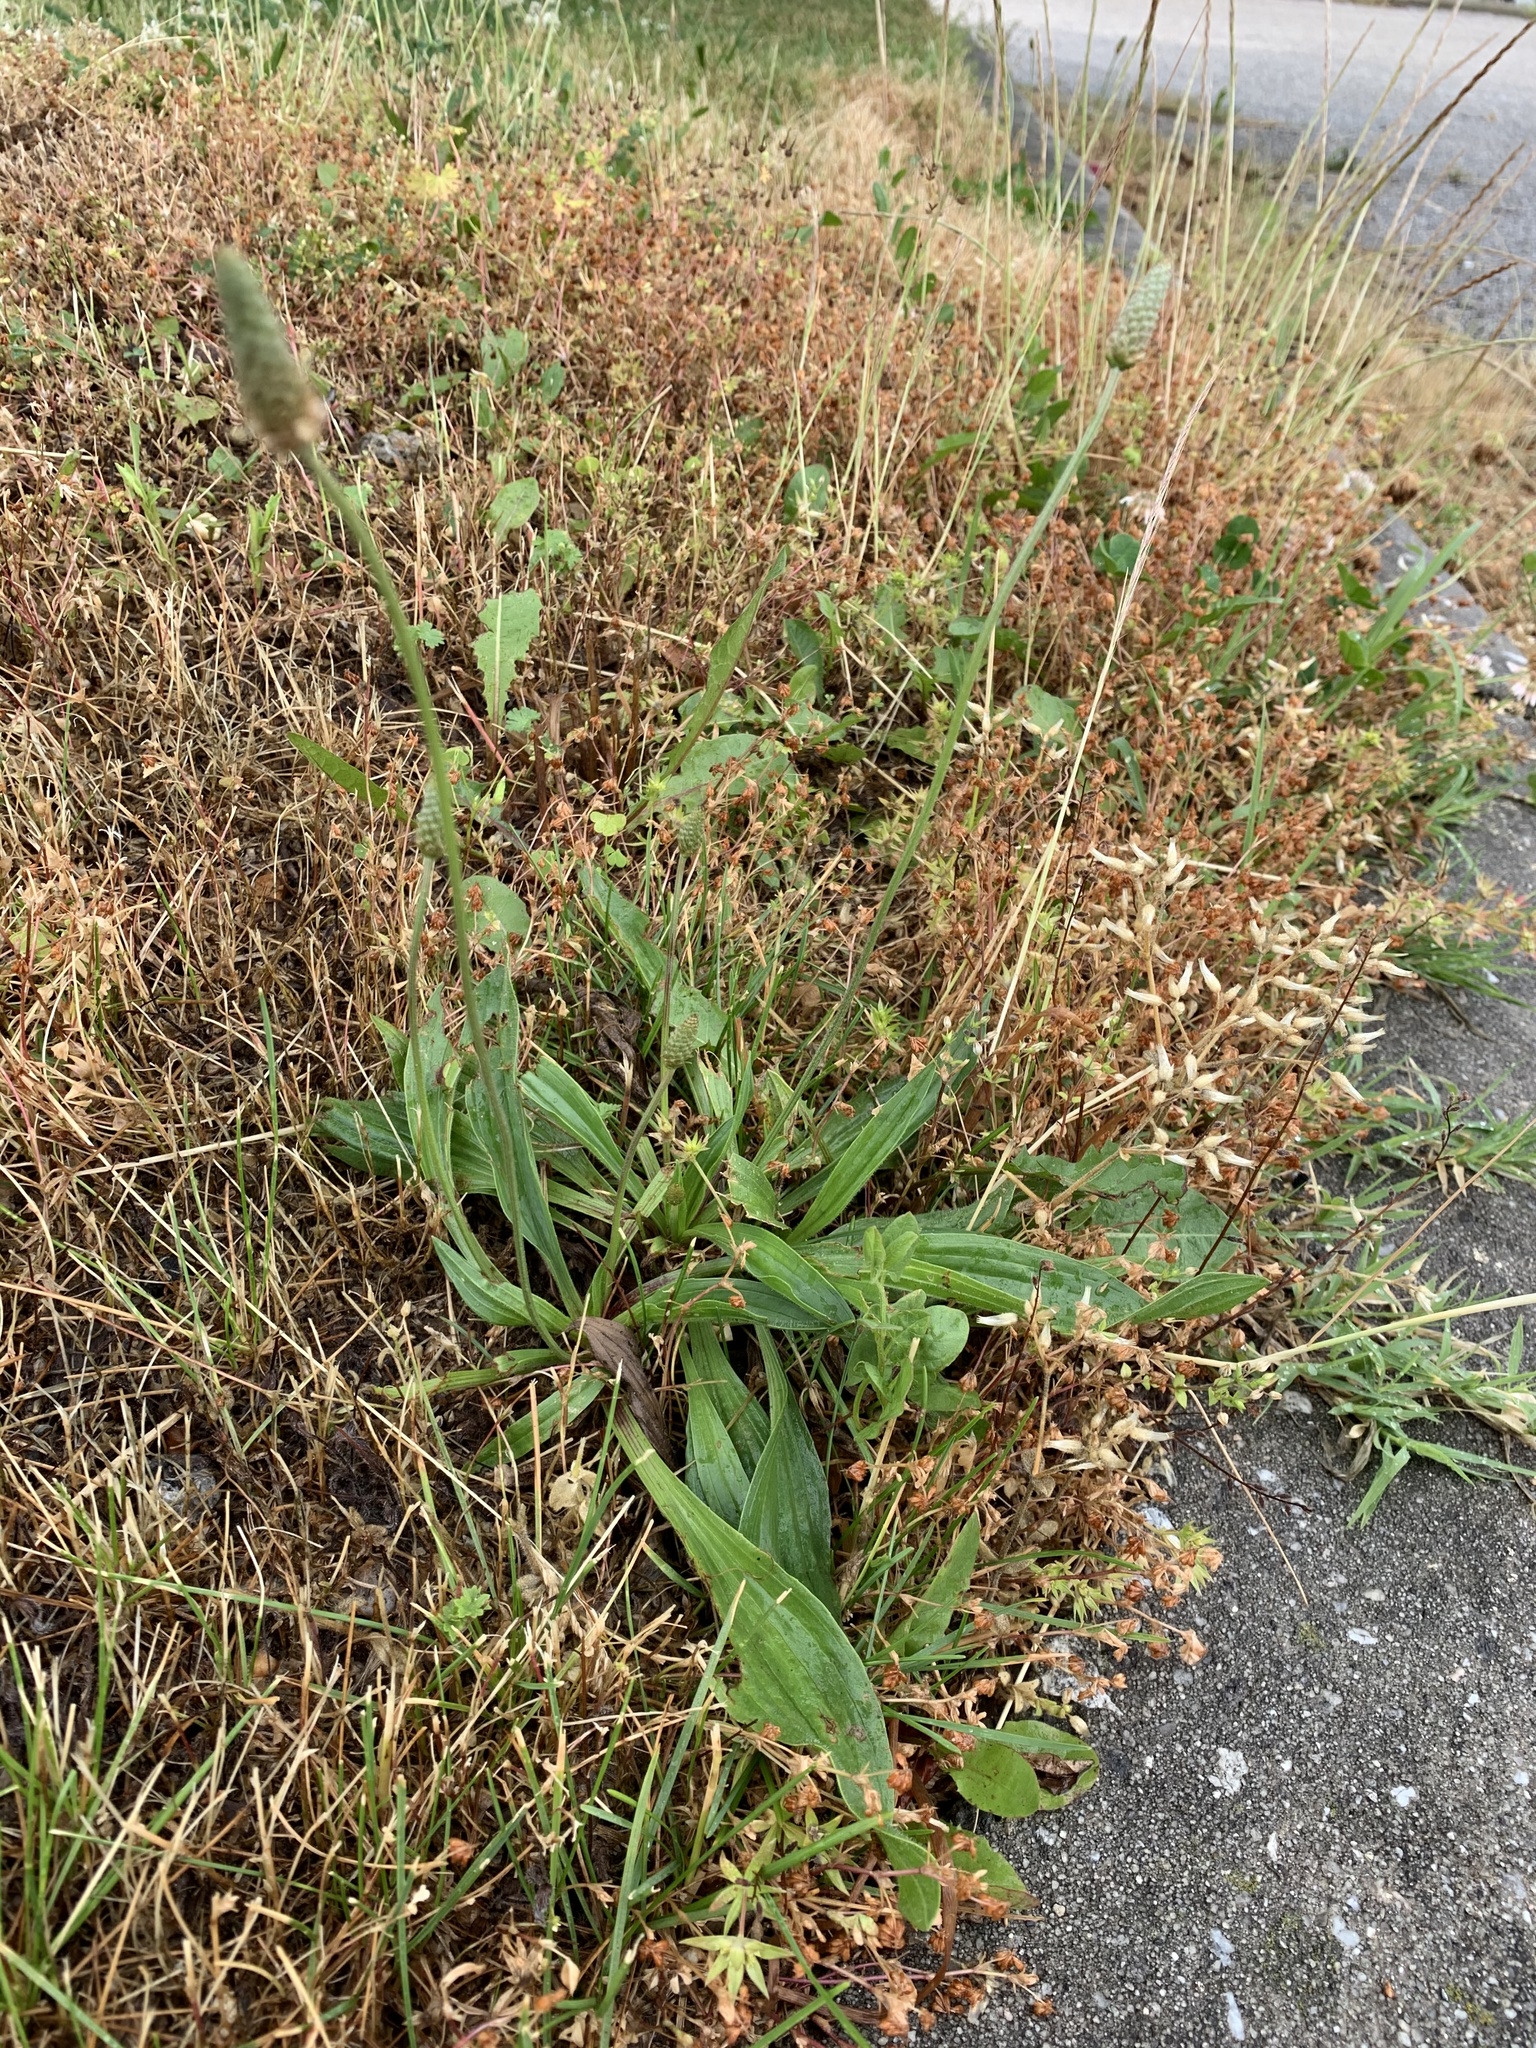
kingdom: Plantae
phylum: Tracheophyta
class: Magnoliopsida
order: Lamiales
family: Plantaginaceae
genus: Plantago
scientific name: Plantago lanceolata
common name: Ribwort plantain
